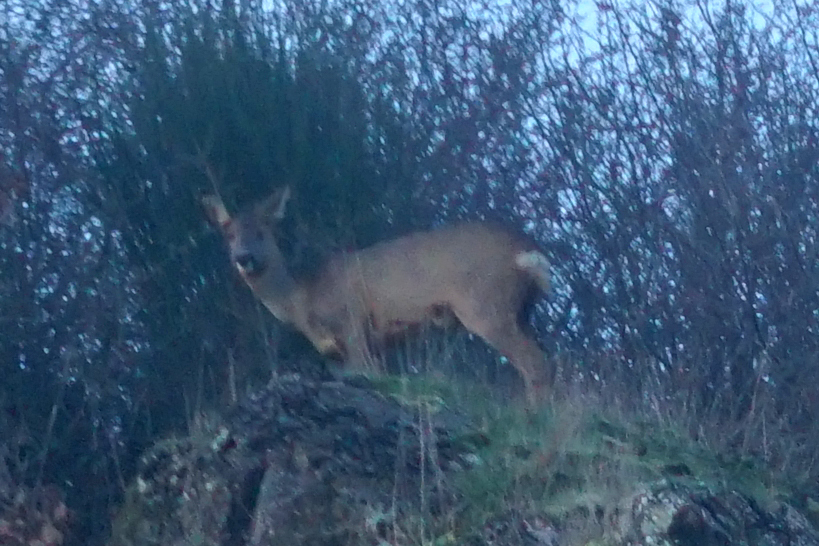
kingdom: Animalia
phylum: Chordata
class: Mammalia
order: Artiodactyla
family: Cervidae
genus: Capreolus
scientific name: Capreolus capreolus
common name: Western roe deer
